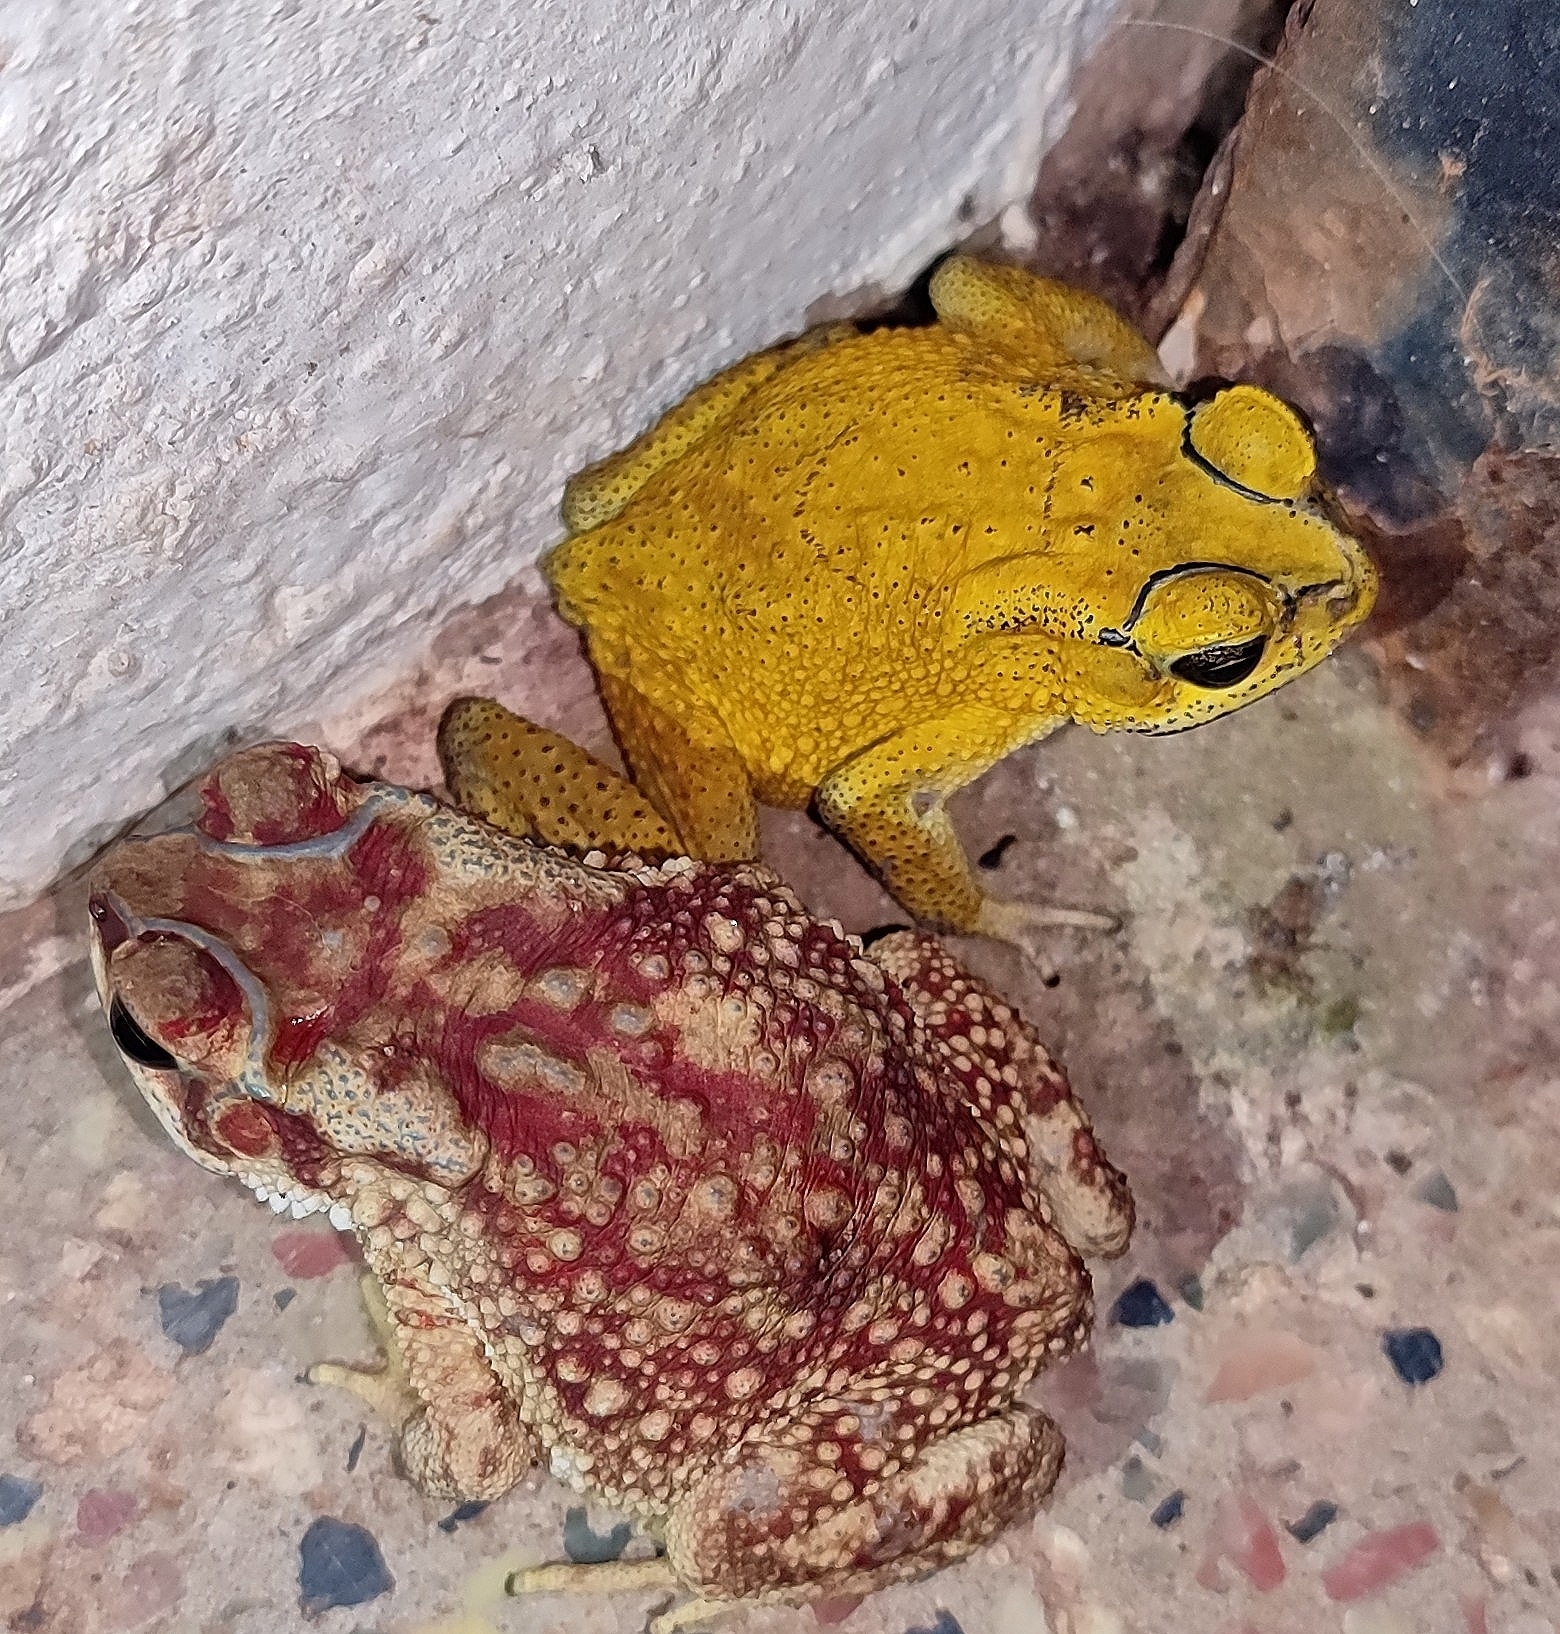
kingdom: Animalia
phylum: Chordata
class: Amphibia
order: Anura
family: Bufonidae
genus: Duttaphrynus
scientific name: Duttaphrynus melanostictus
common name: Common sunda toad
